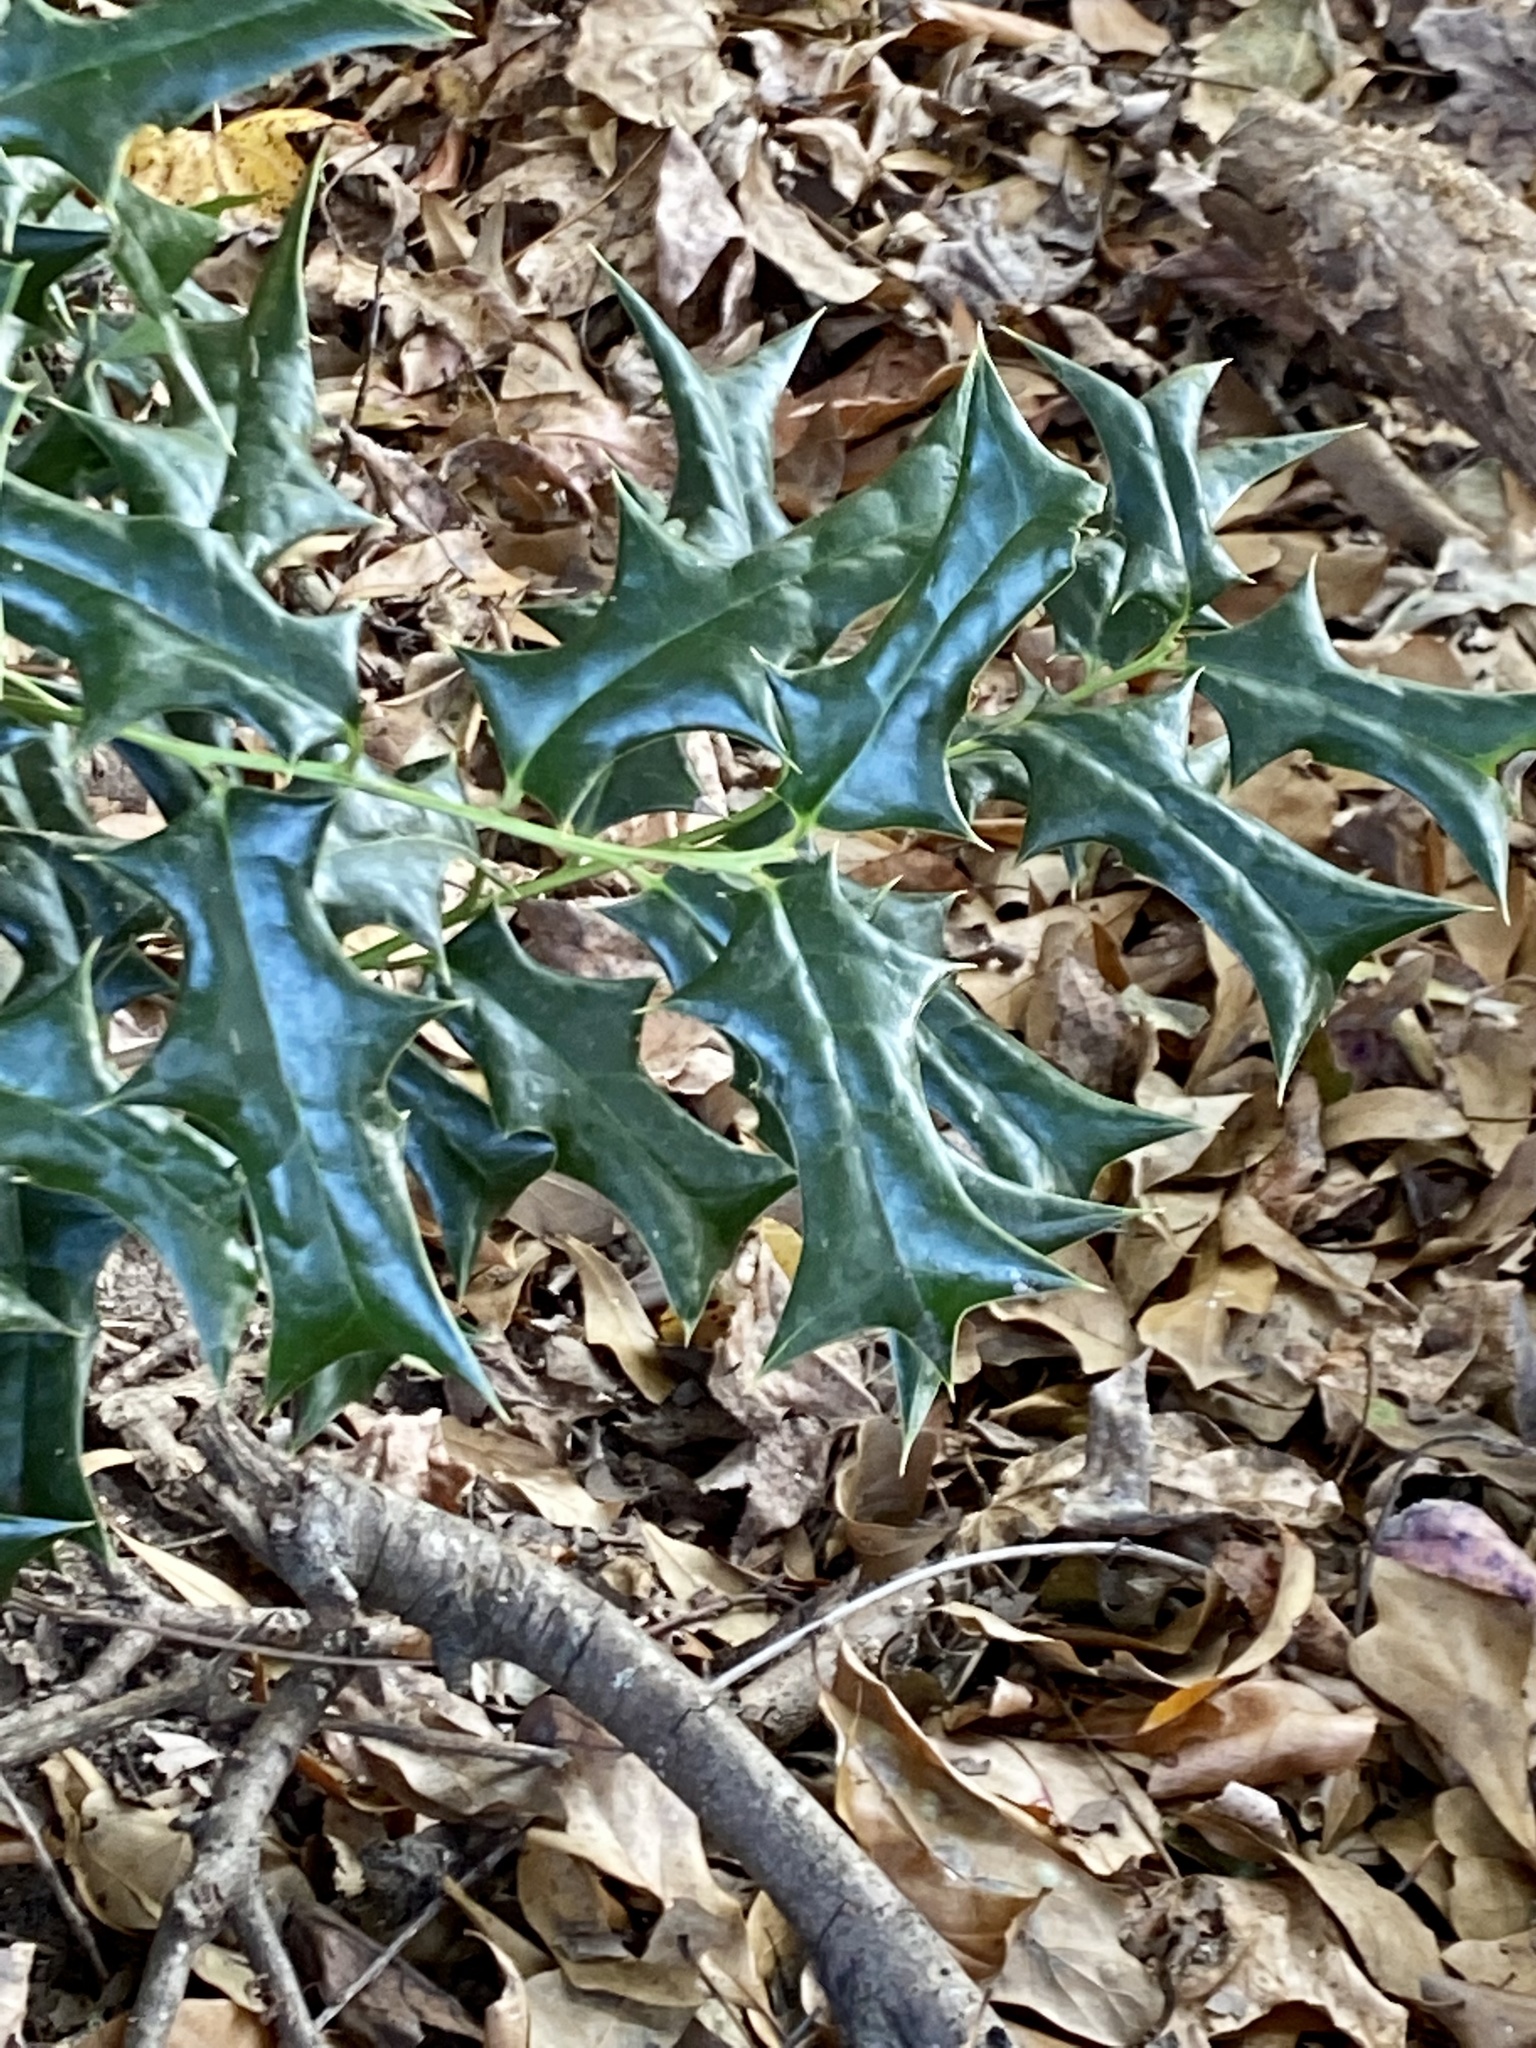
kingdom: Plantae
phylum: Tracheophyta
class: Magnoliopsida
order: Aquifoliales
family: Aquifoliaceae
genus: Ilex
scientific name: Ilex cornuta
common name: Chinese holly
